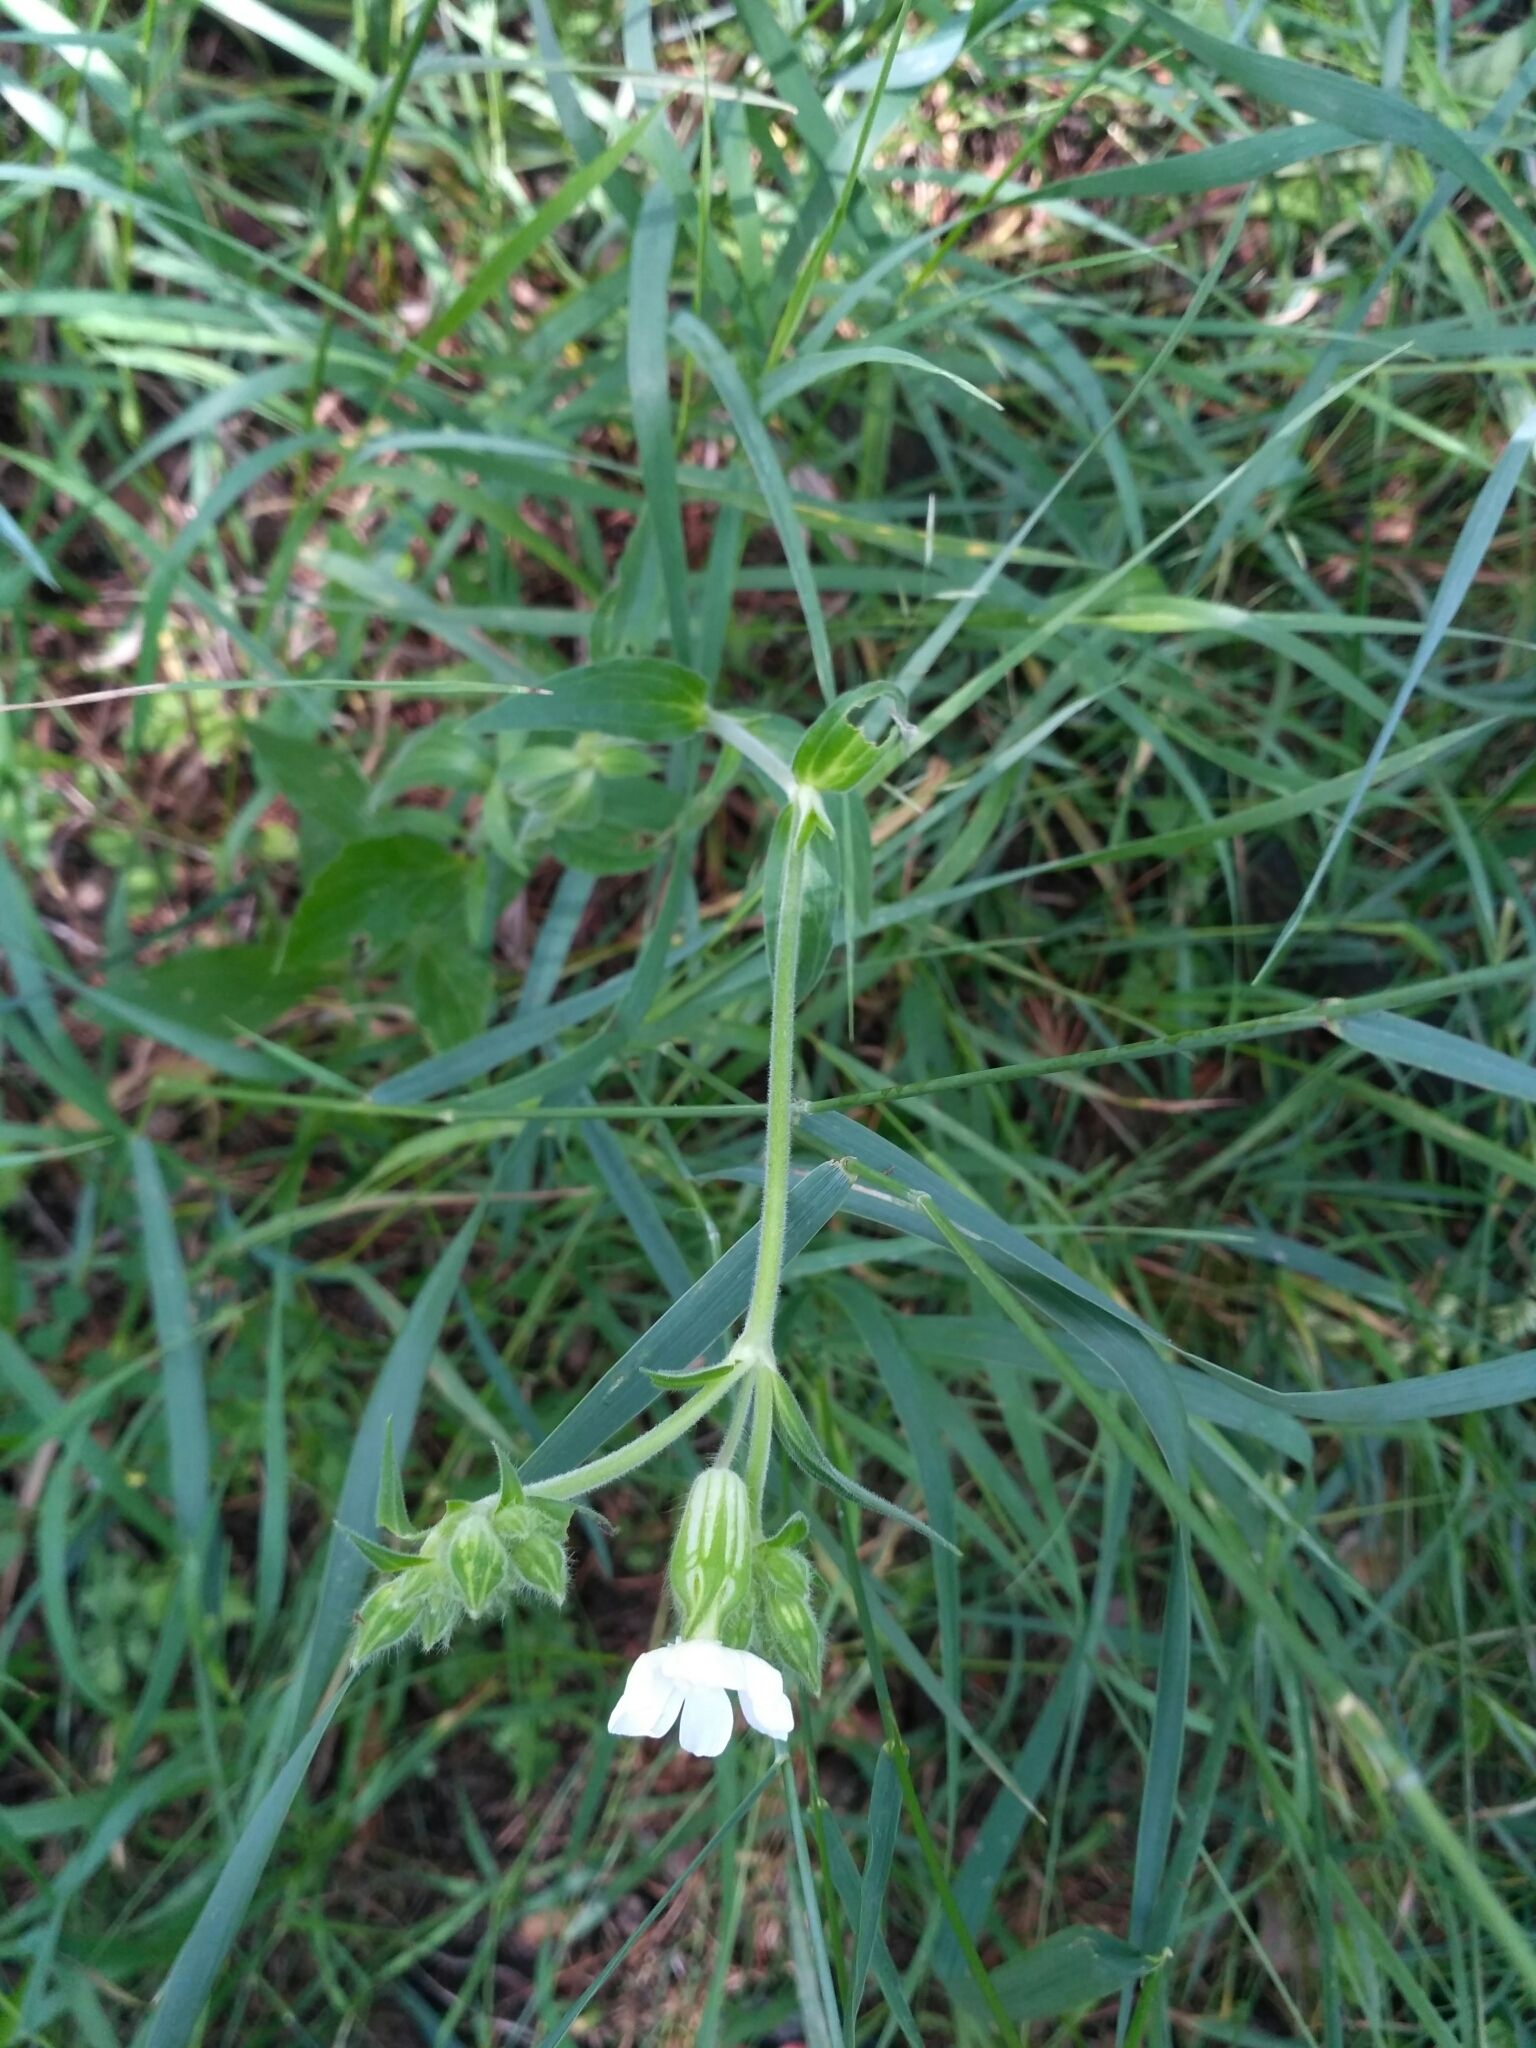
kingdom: Plantae
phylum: Tracheophyta
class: Magnoliopsida
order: Caryophyllales
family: Caryophyllaceae
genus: Silene
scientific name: Silene latifolia
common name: White campion
